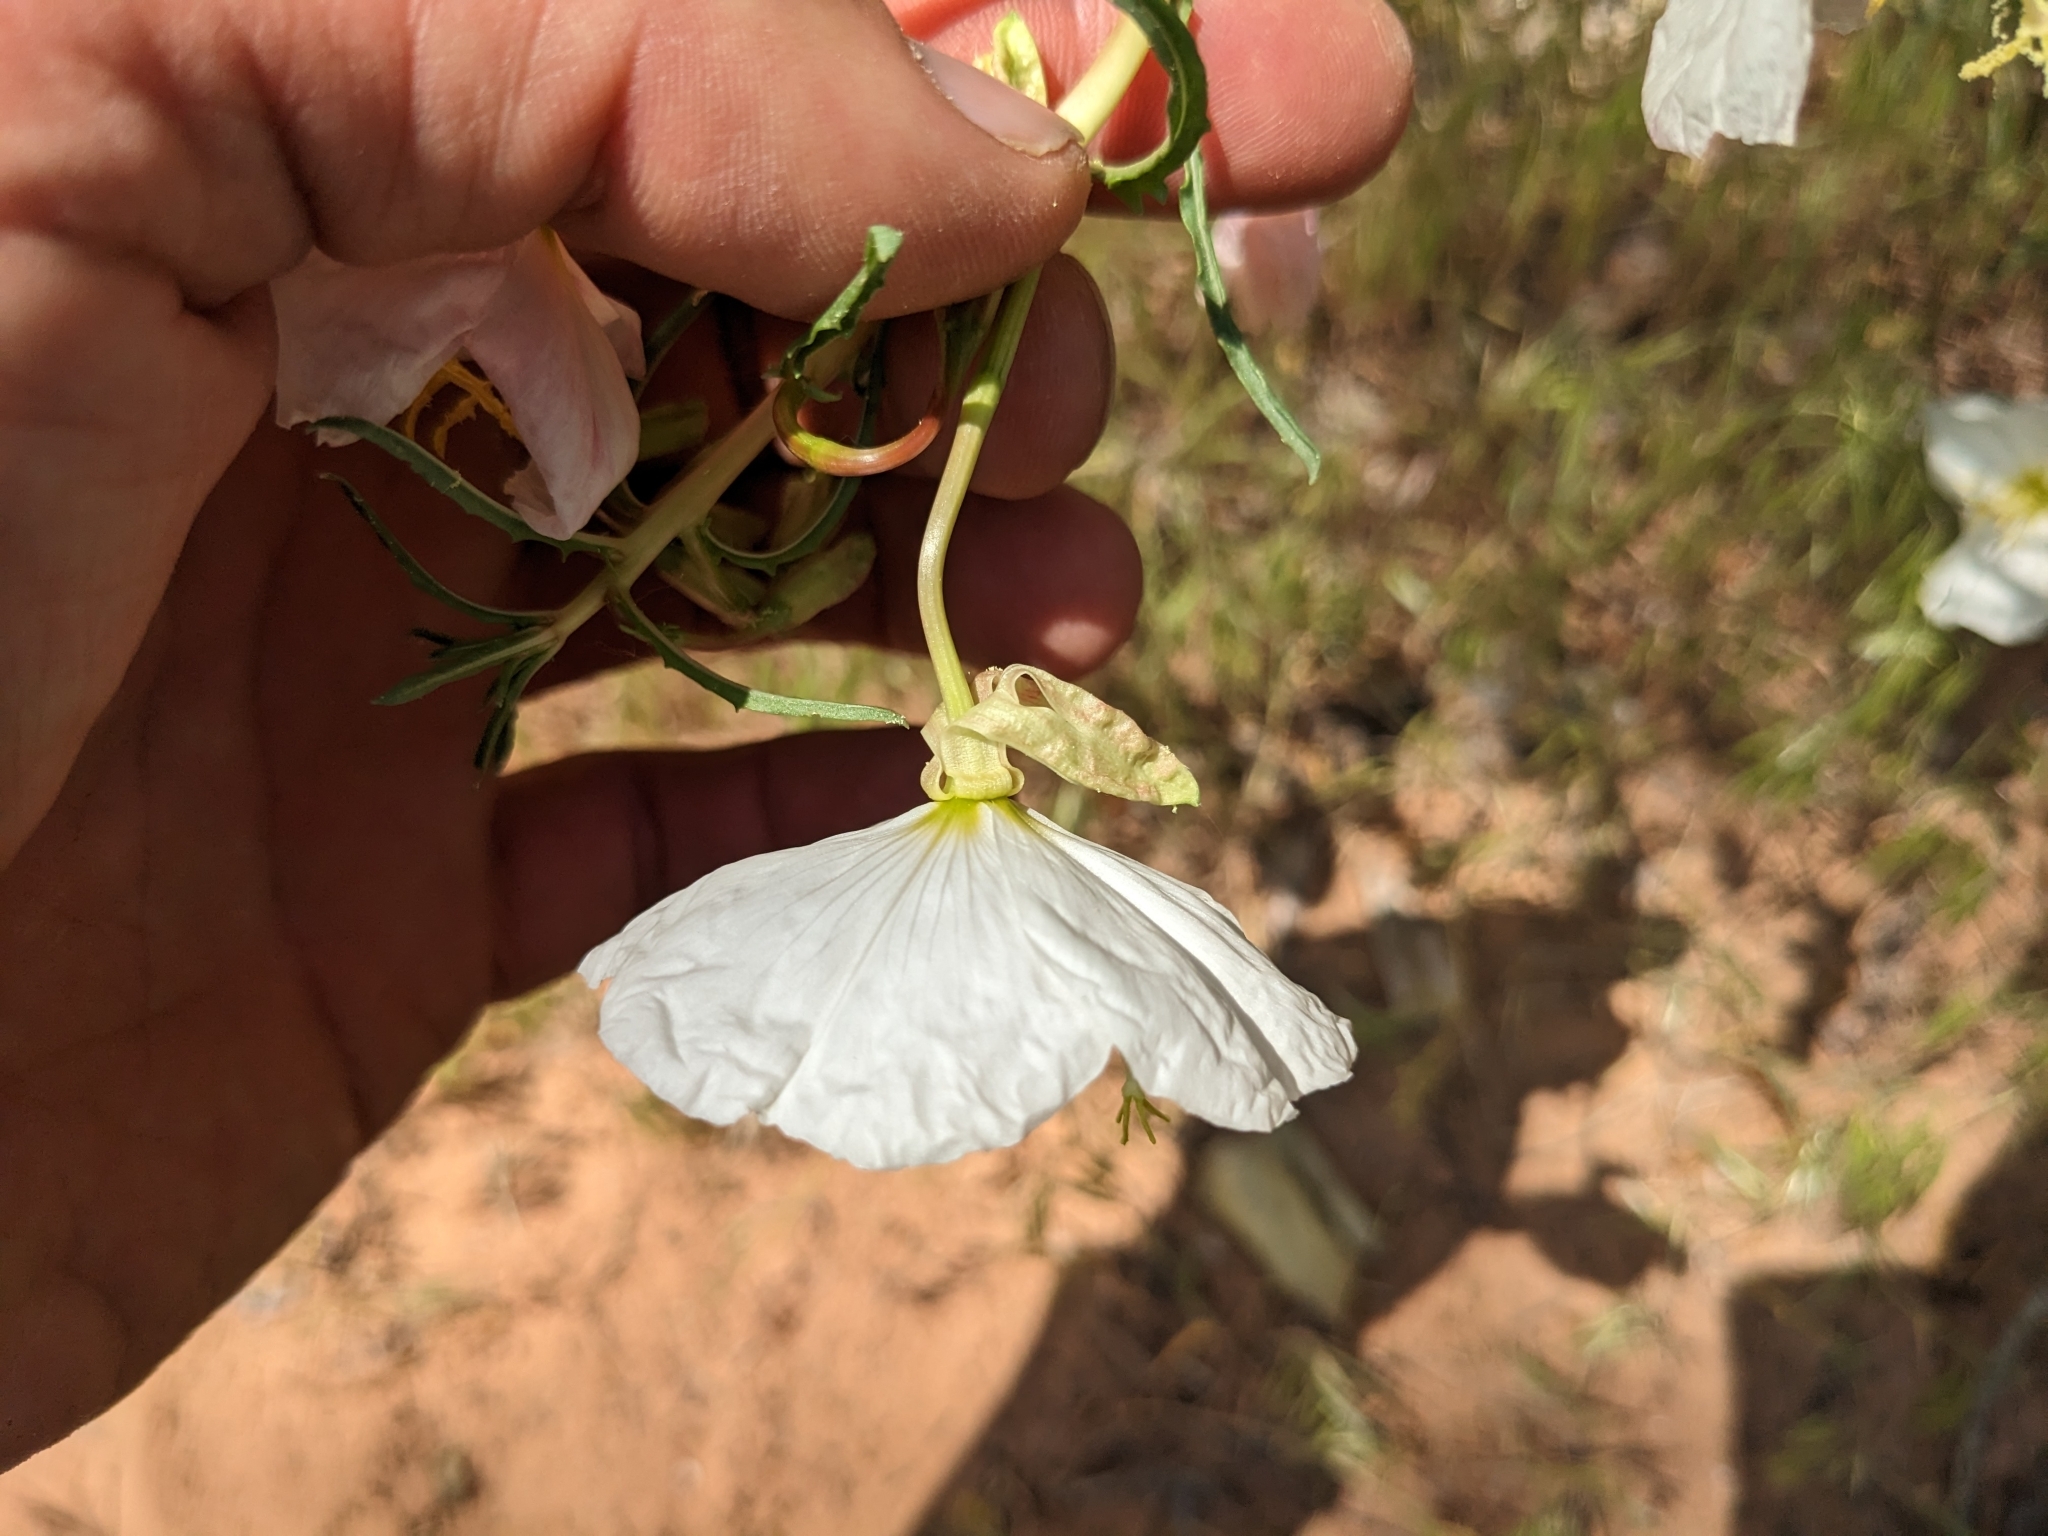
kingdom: Plantae
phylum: Tracheophyta
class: Magnoliopsida
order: Myrtales
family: Onagraceae
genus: Oenothera
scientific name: Oenothera pallida
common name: Pale evening-primrose
